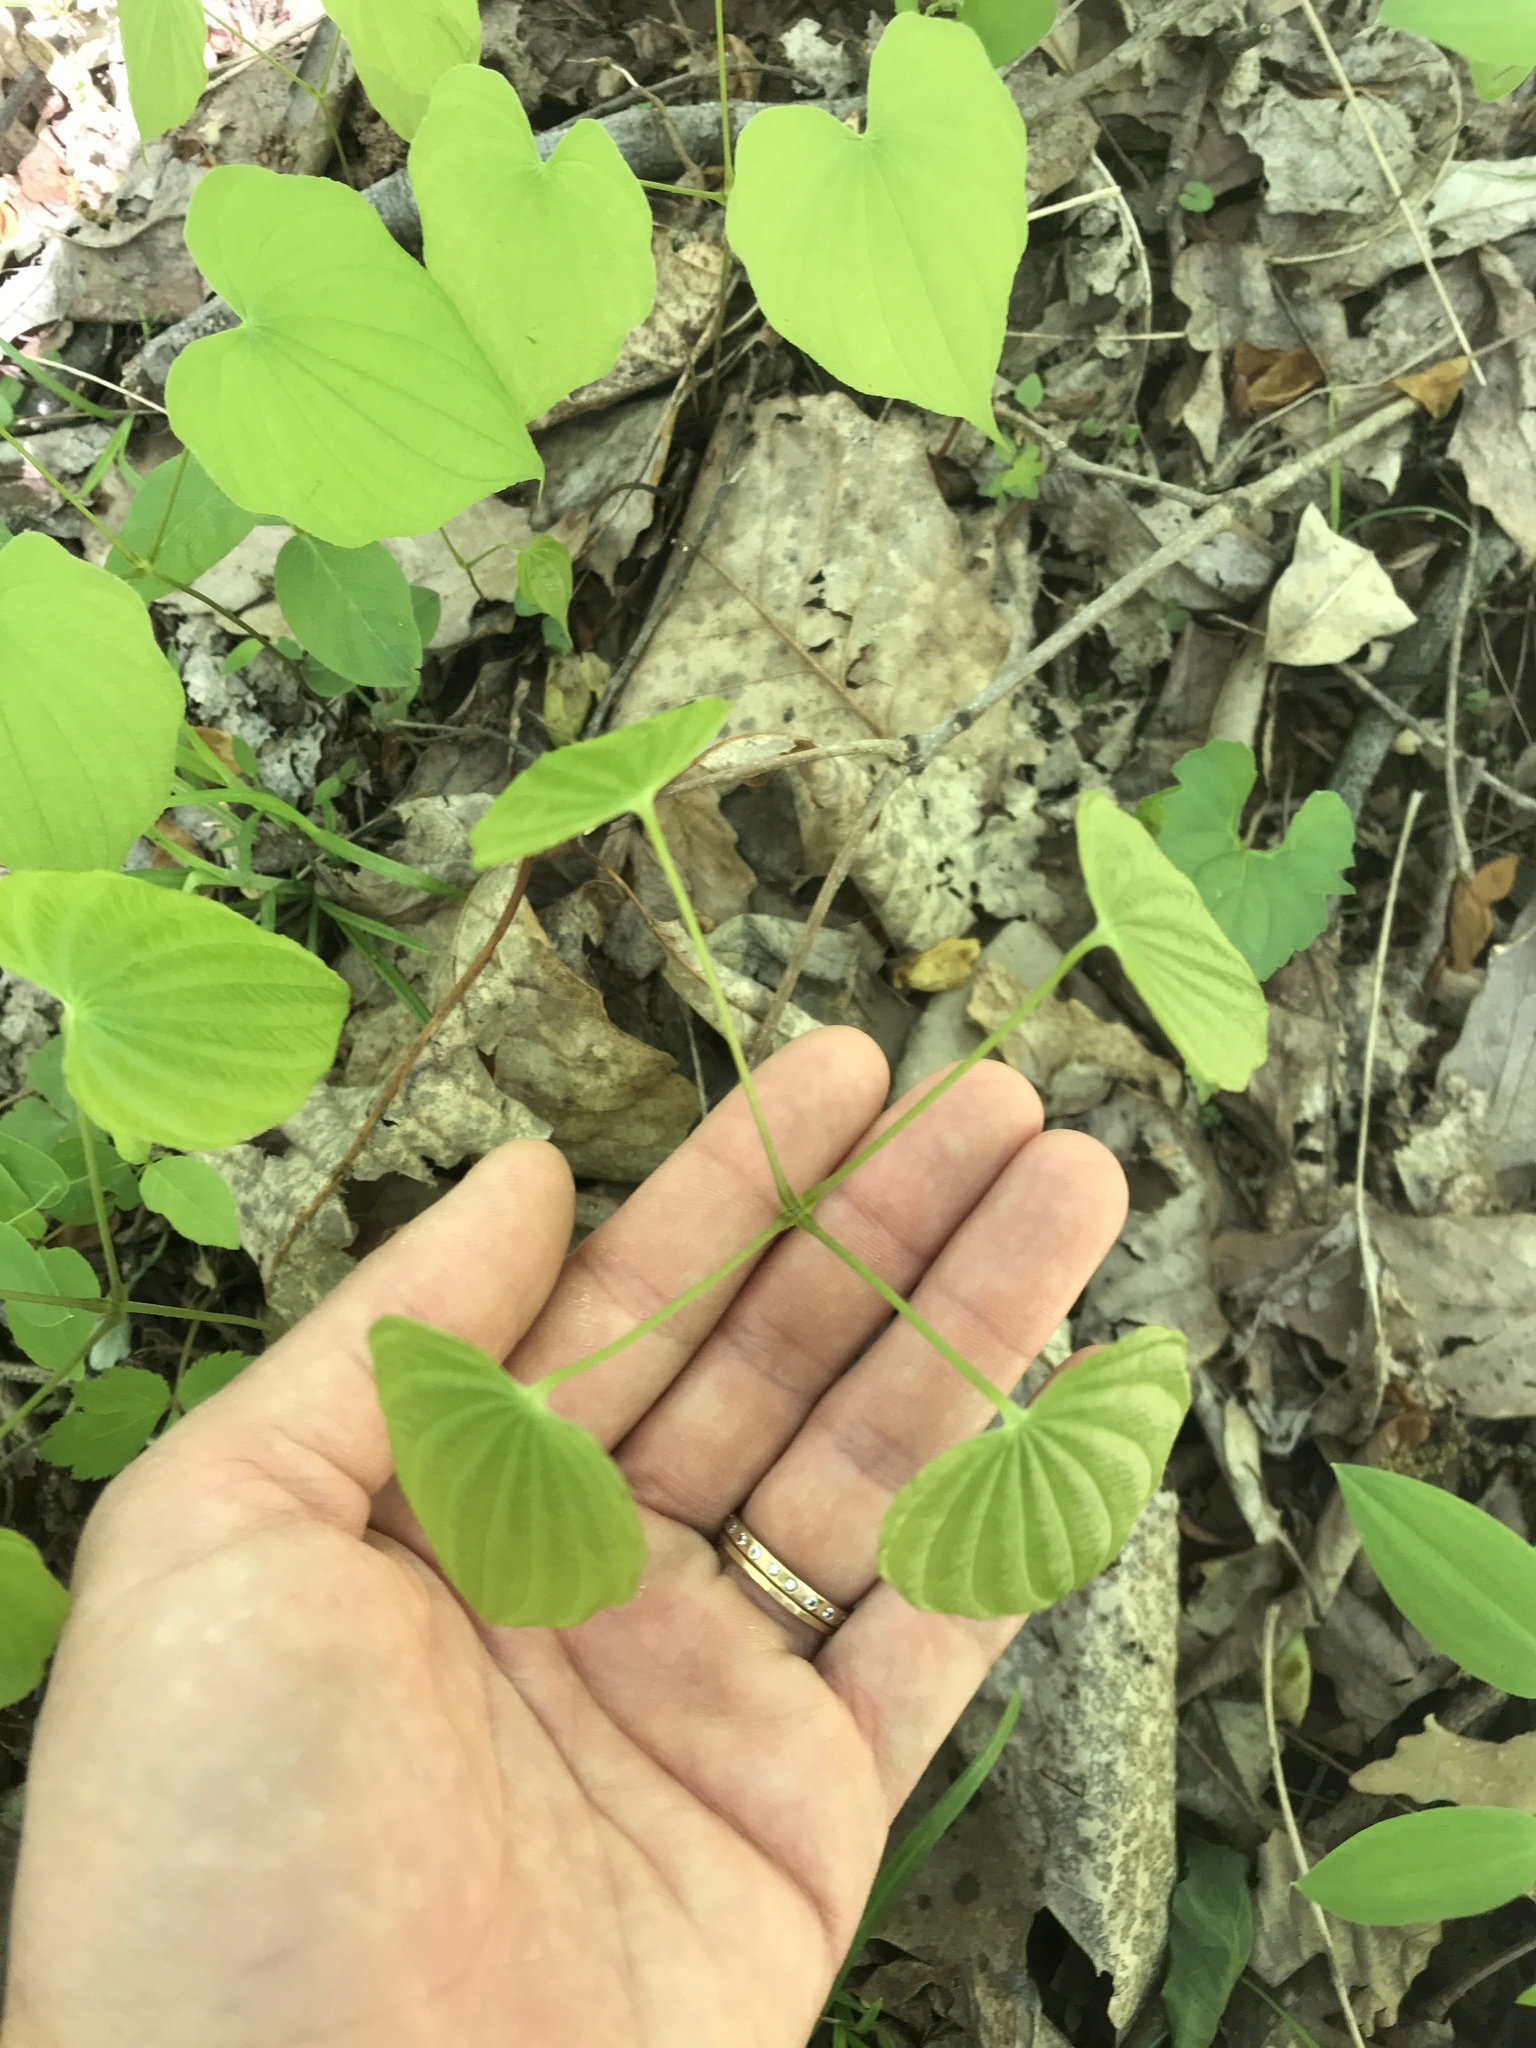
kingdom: Plantae
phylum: Tracheophyta
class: Liliopsida
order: Dioscoreales
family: Dioscoreaceae
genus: Dioscorea
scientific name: Dioscorea villosa
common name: Wild yam
